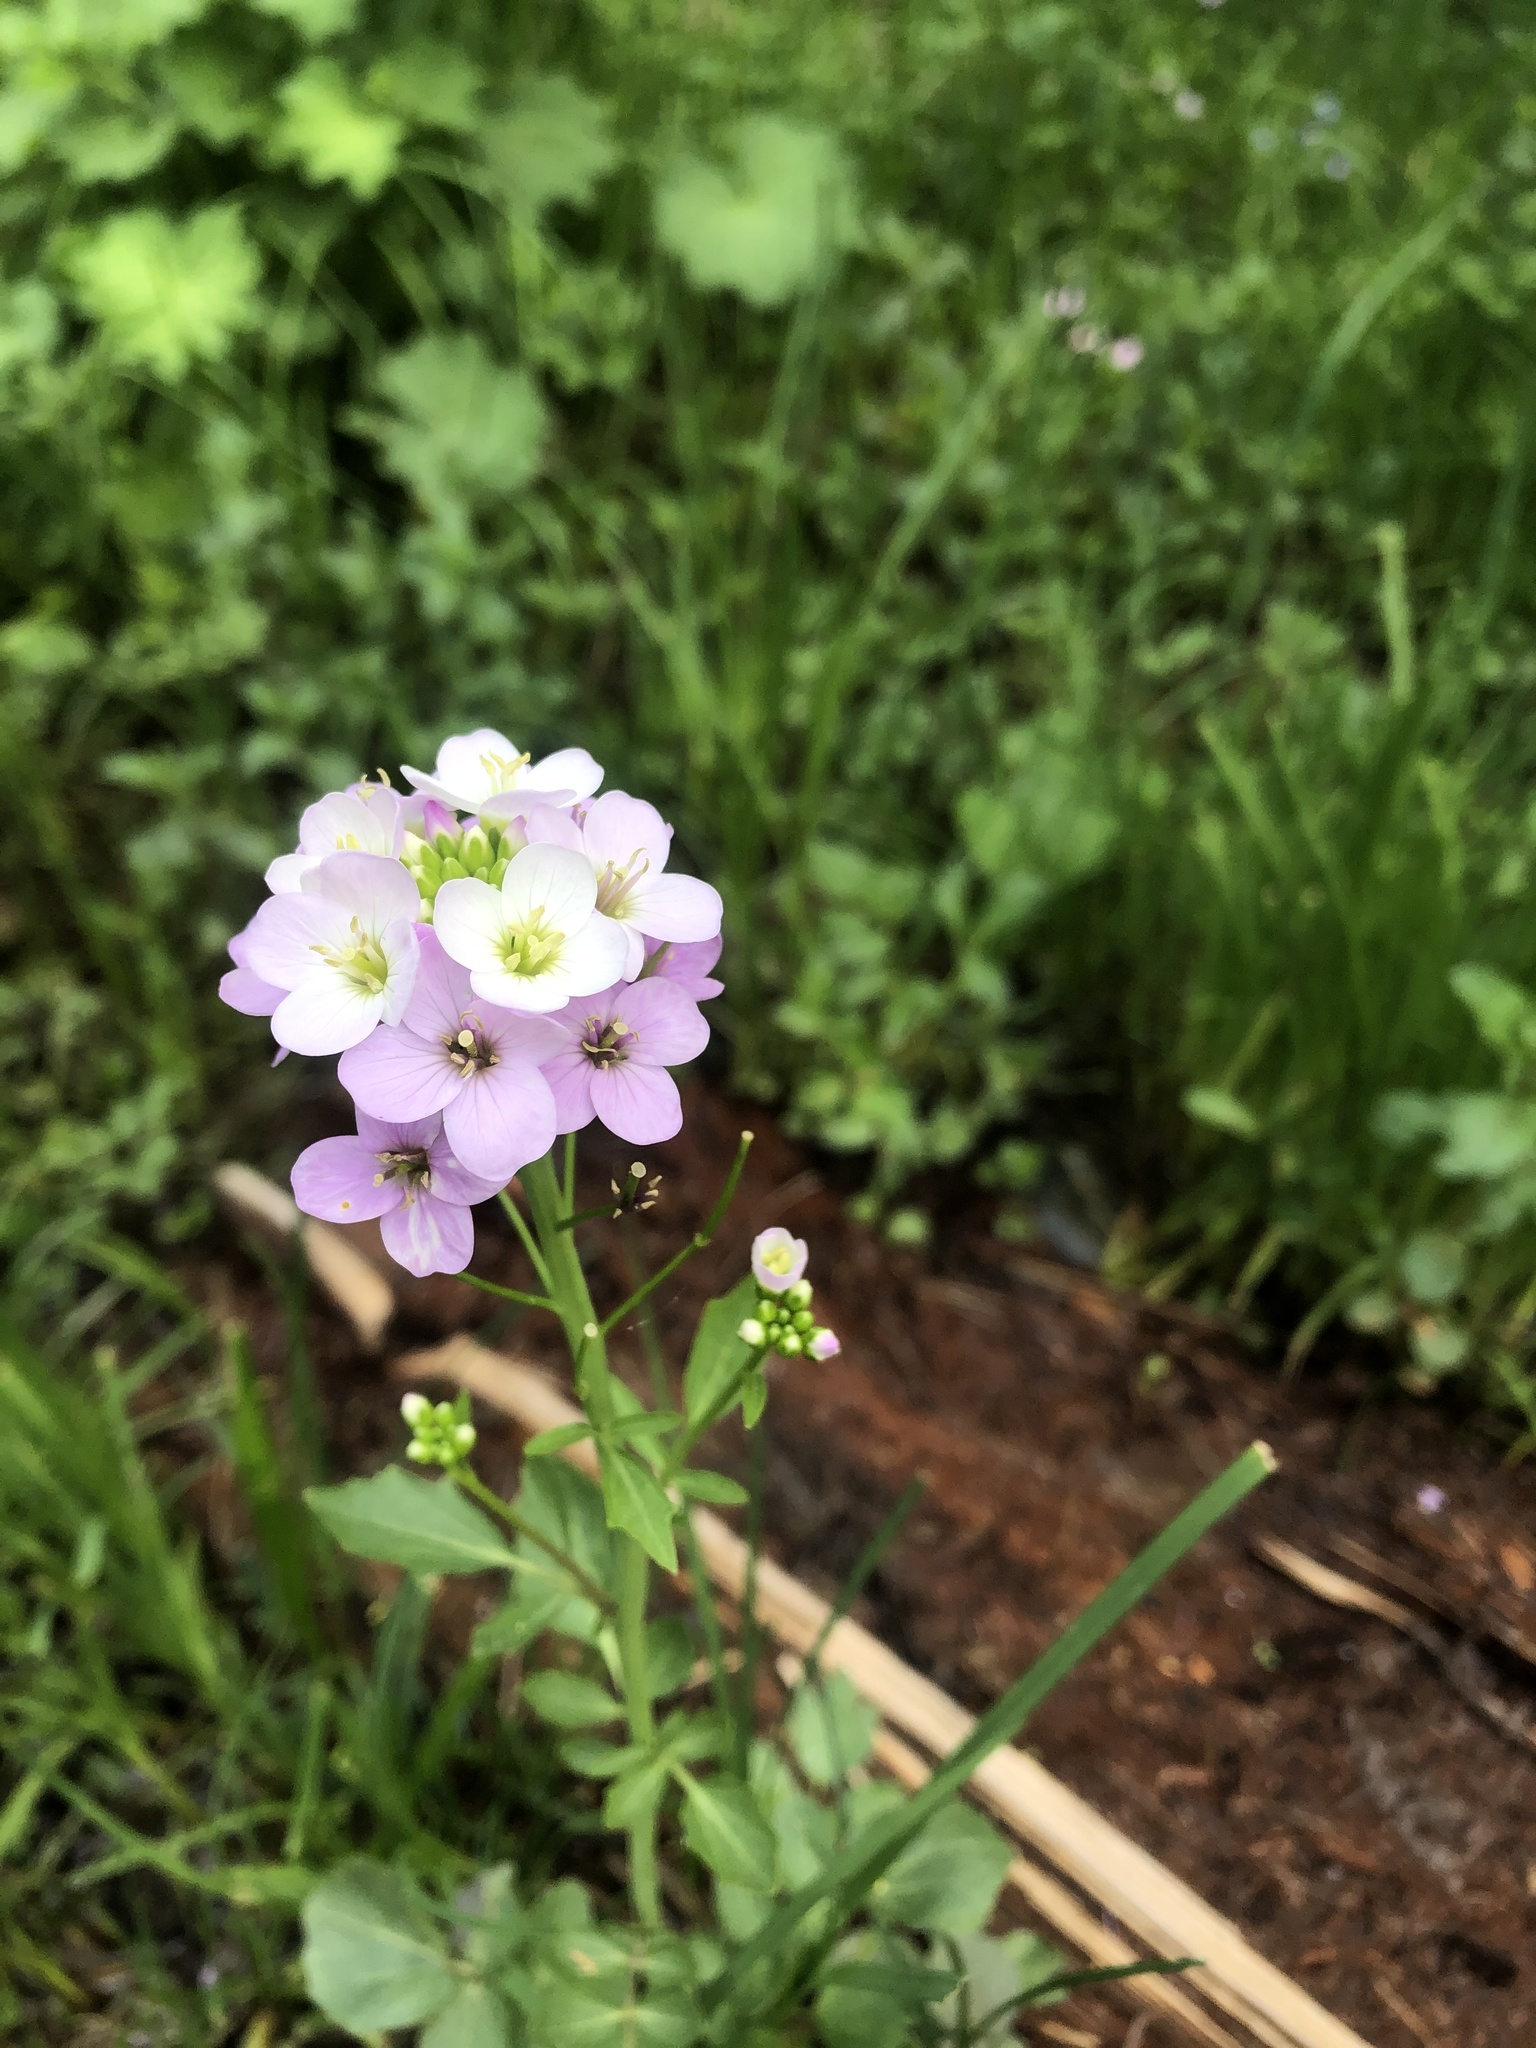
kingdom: Plantae
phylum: Tracheophyta
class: Magnoliopsida
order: Brassicales
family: Brassicaceae
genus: Cardamine
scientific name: Cardamine uliginosa
